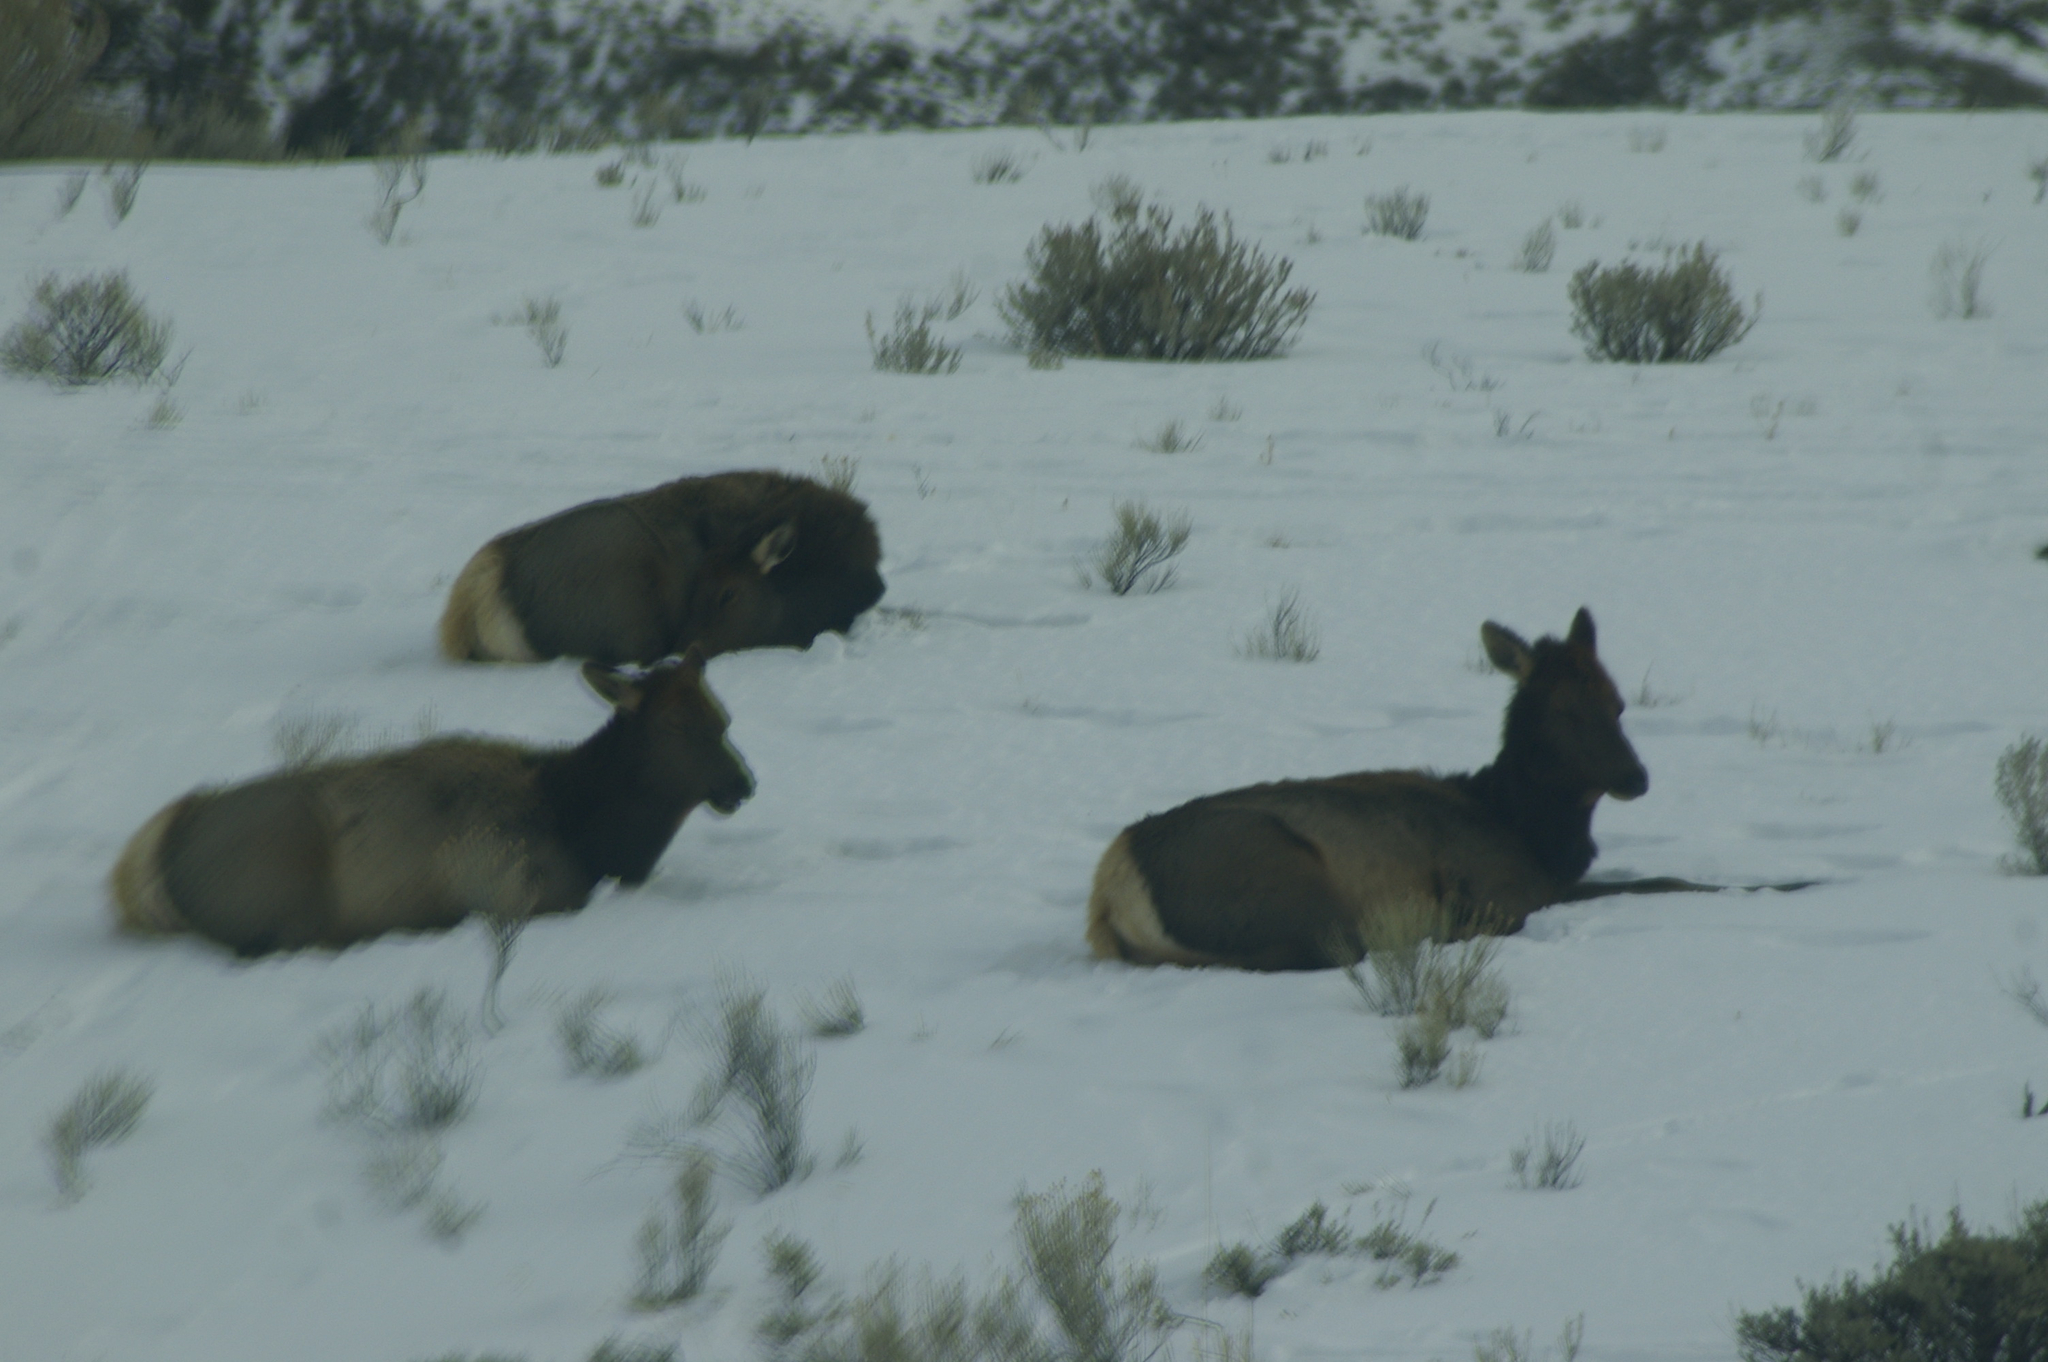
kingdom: Animalia
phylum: Chordata
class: Mammalia
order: Artiodactyla
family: Cervidae
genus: Cervus
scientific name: Cervus elaphus
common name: Red deer
